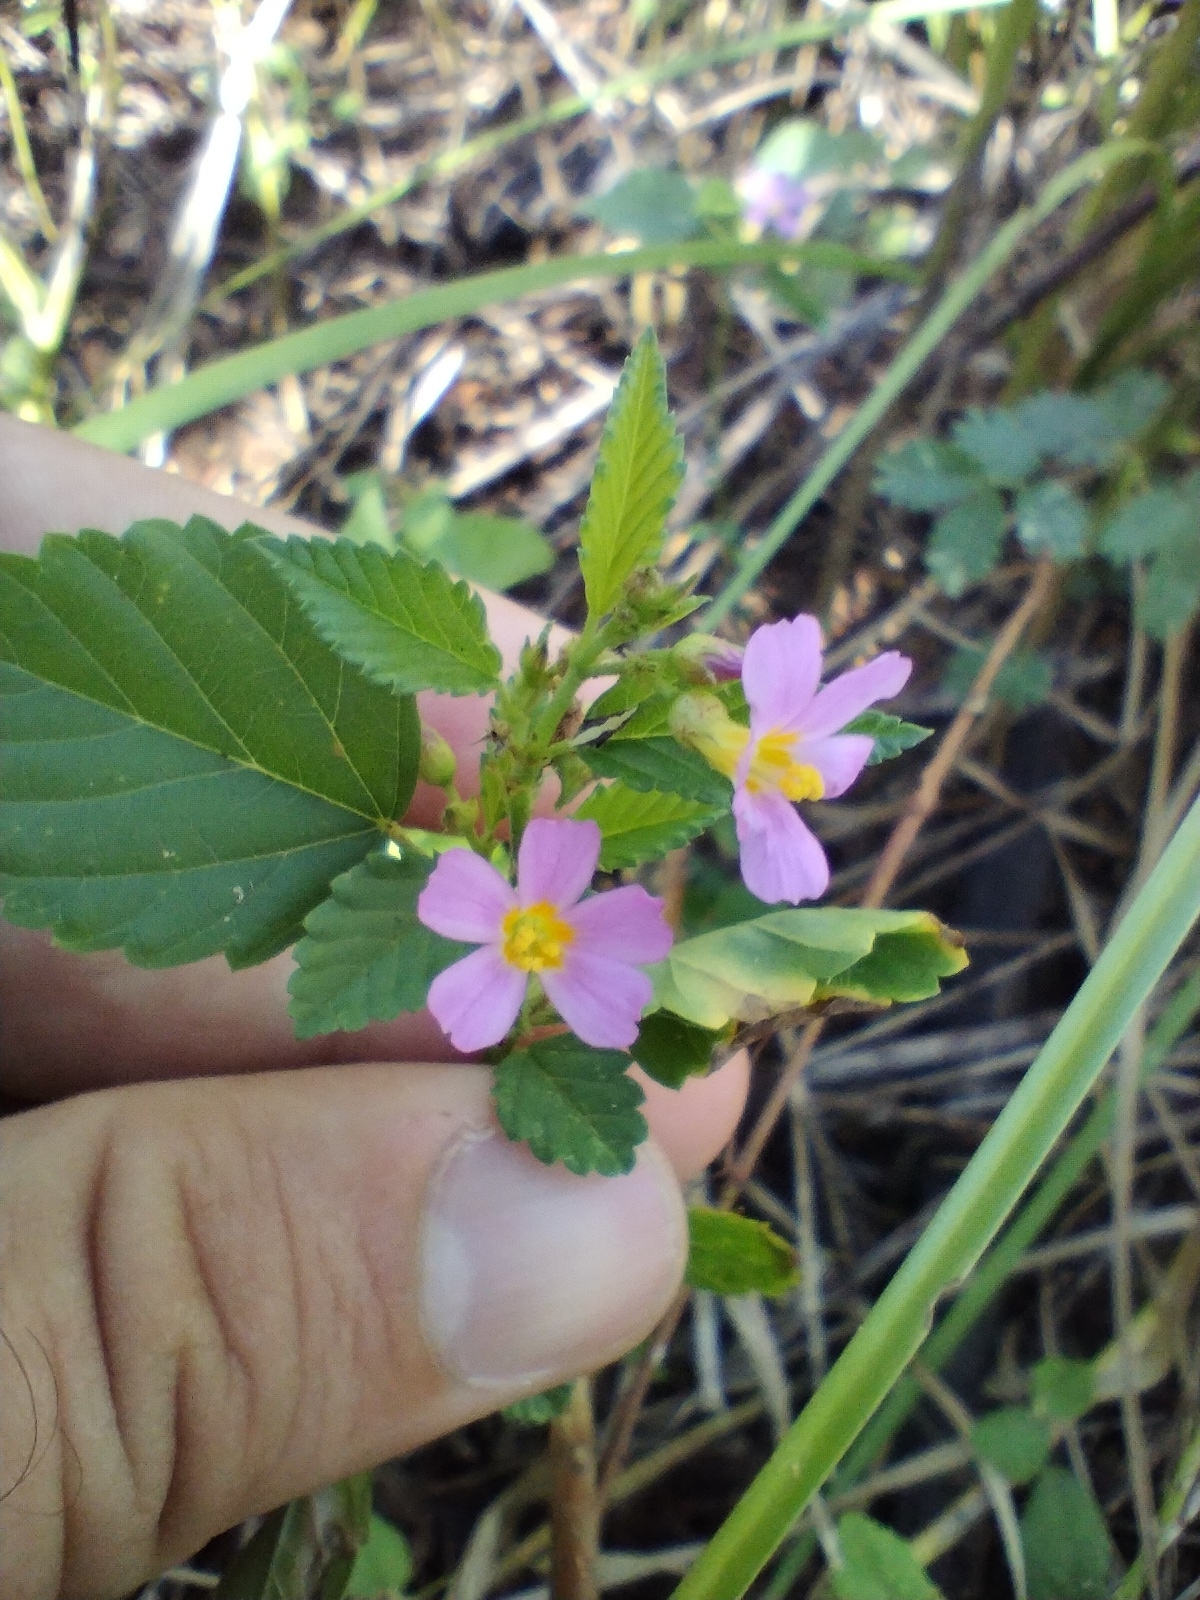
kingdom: Plantae
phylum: Tracheophyta
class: Magnoliopsida
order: Malvales
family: Malvaceae
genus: Melochia
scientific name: Melochia pyramidata
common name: Pyramidflower
